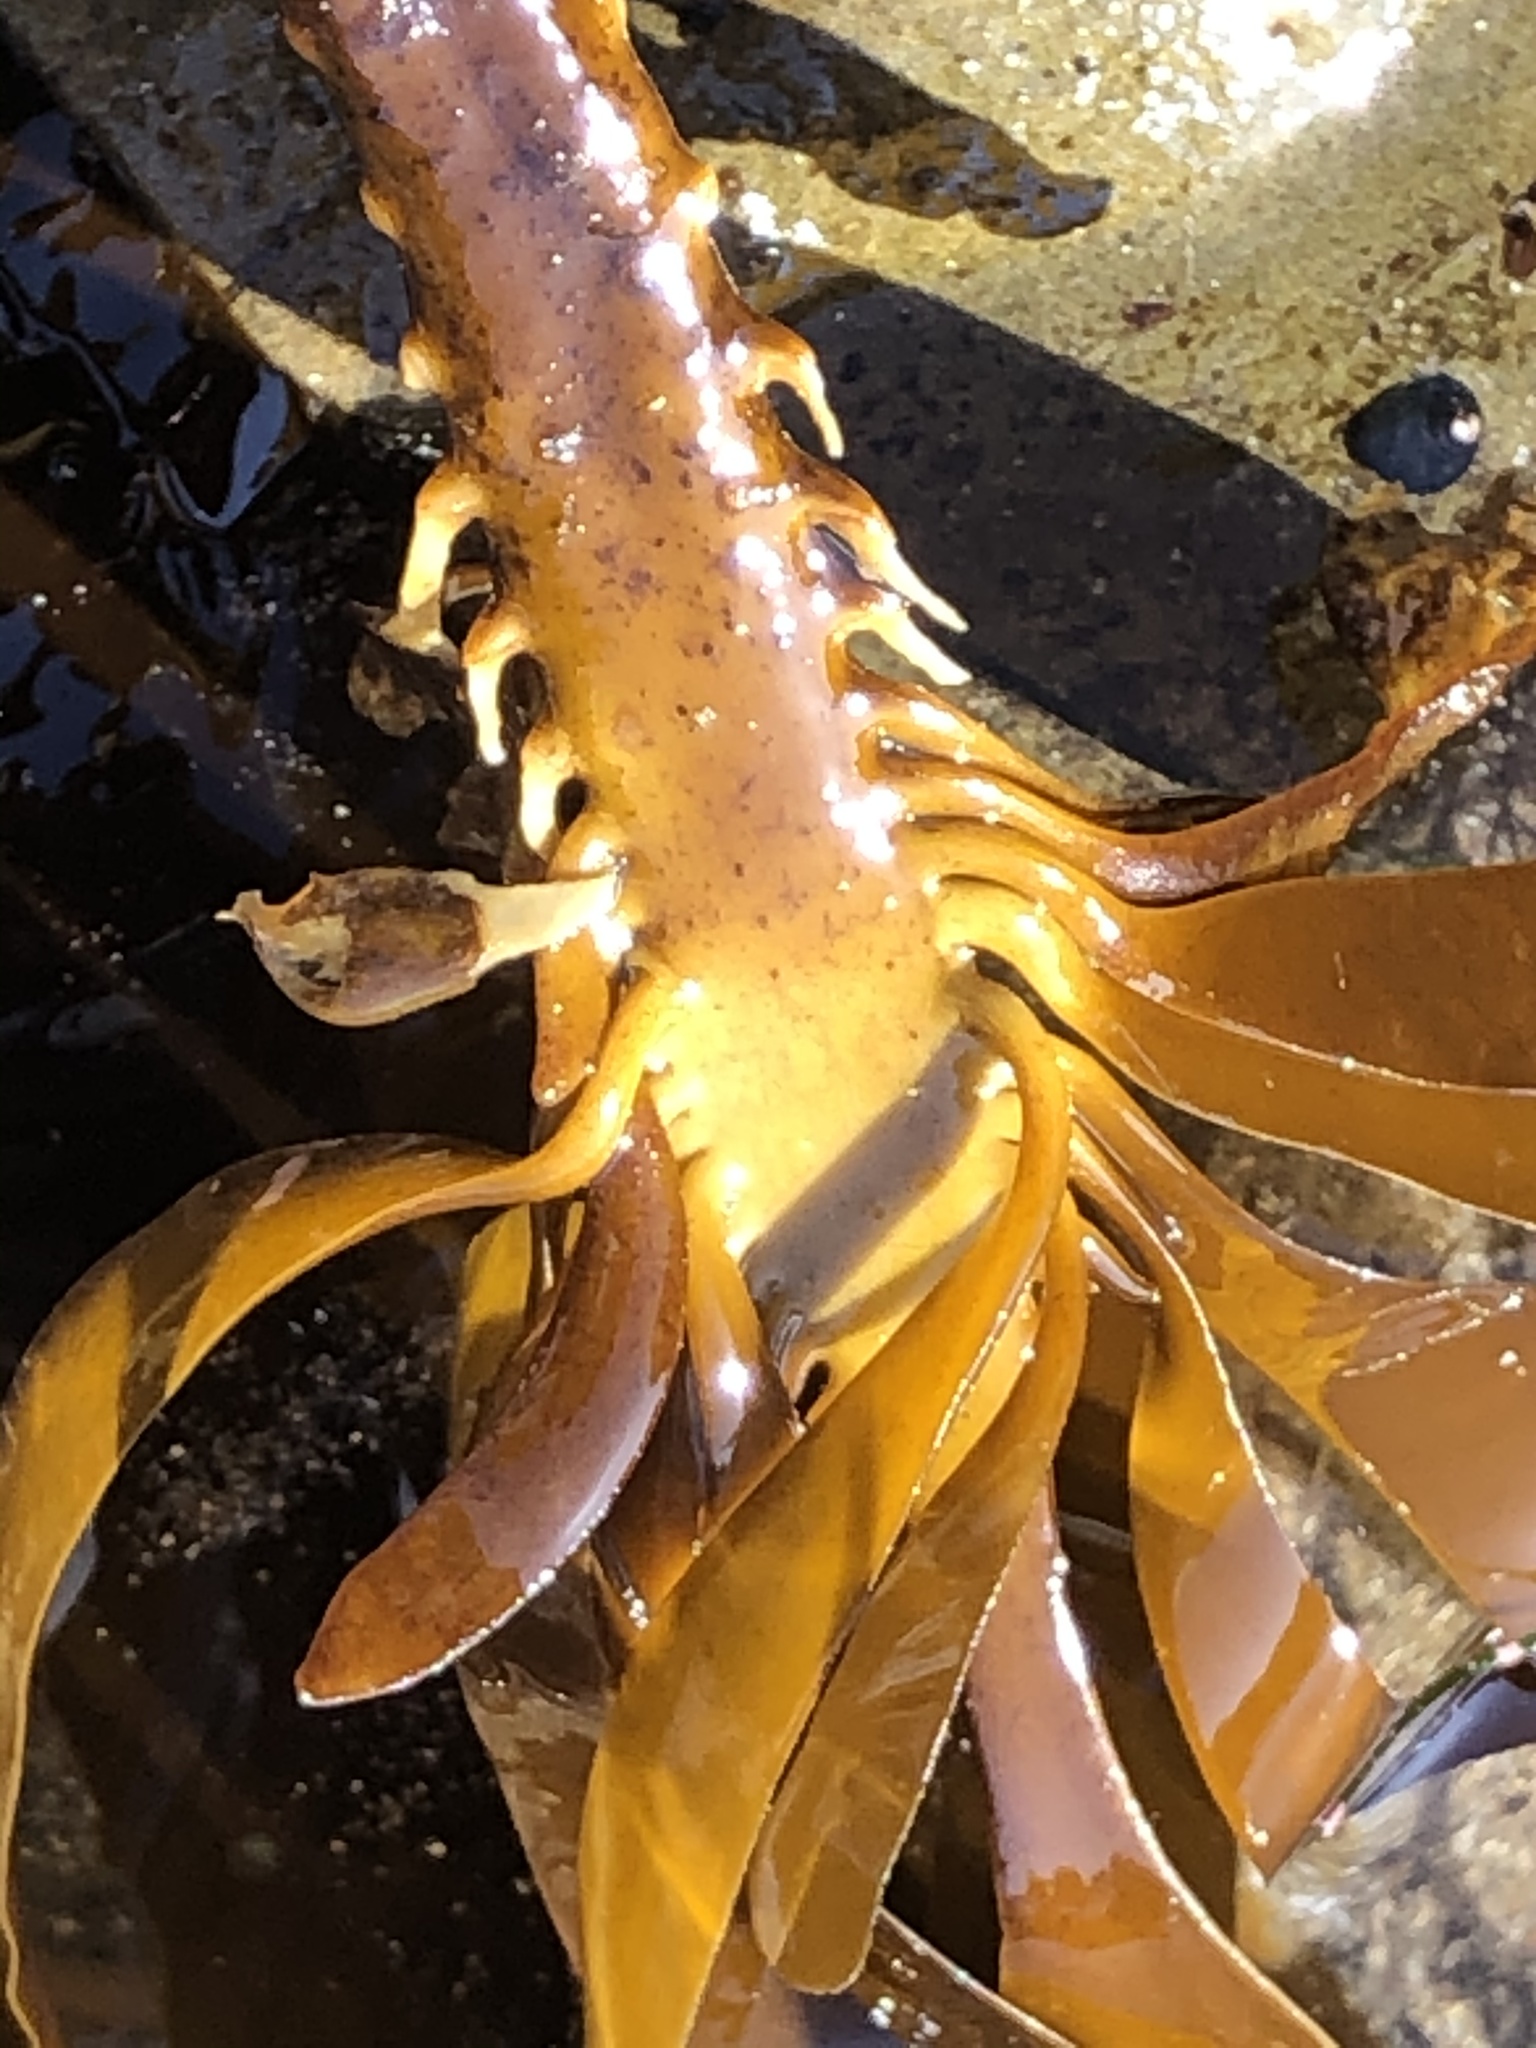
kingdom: Chromista
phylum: Ochrophyta
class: Phaeophyceae
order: Laminariales
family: Alariaceae
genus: Pterygophora
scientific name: Pterygophora californica
